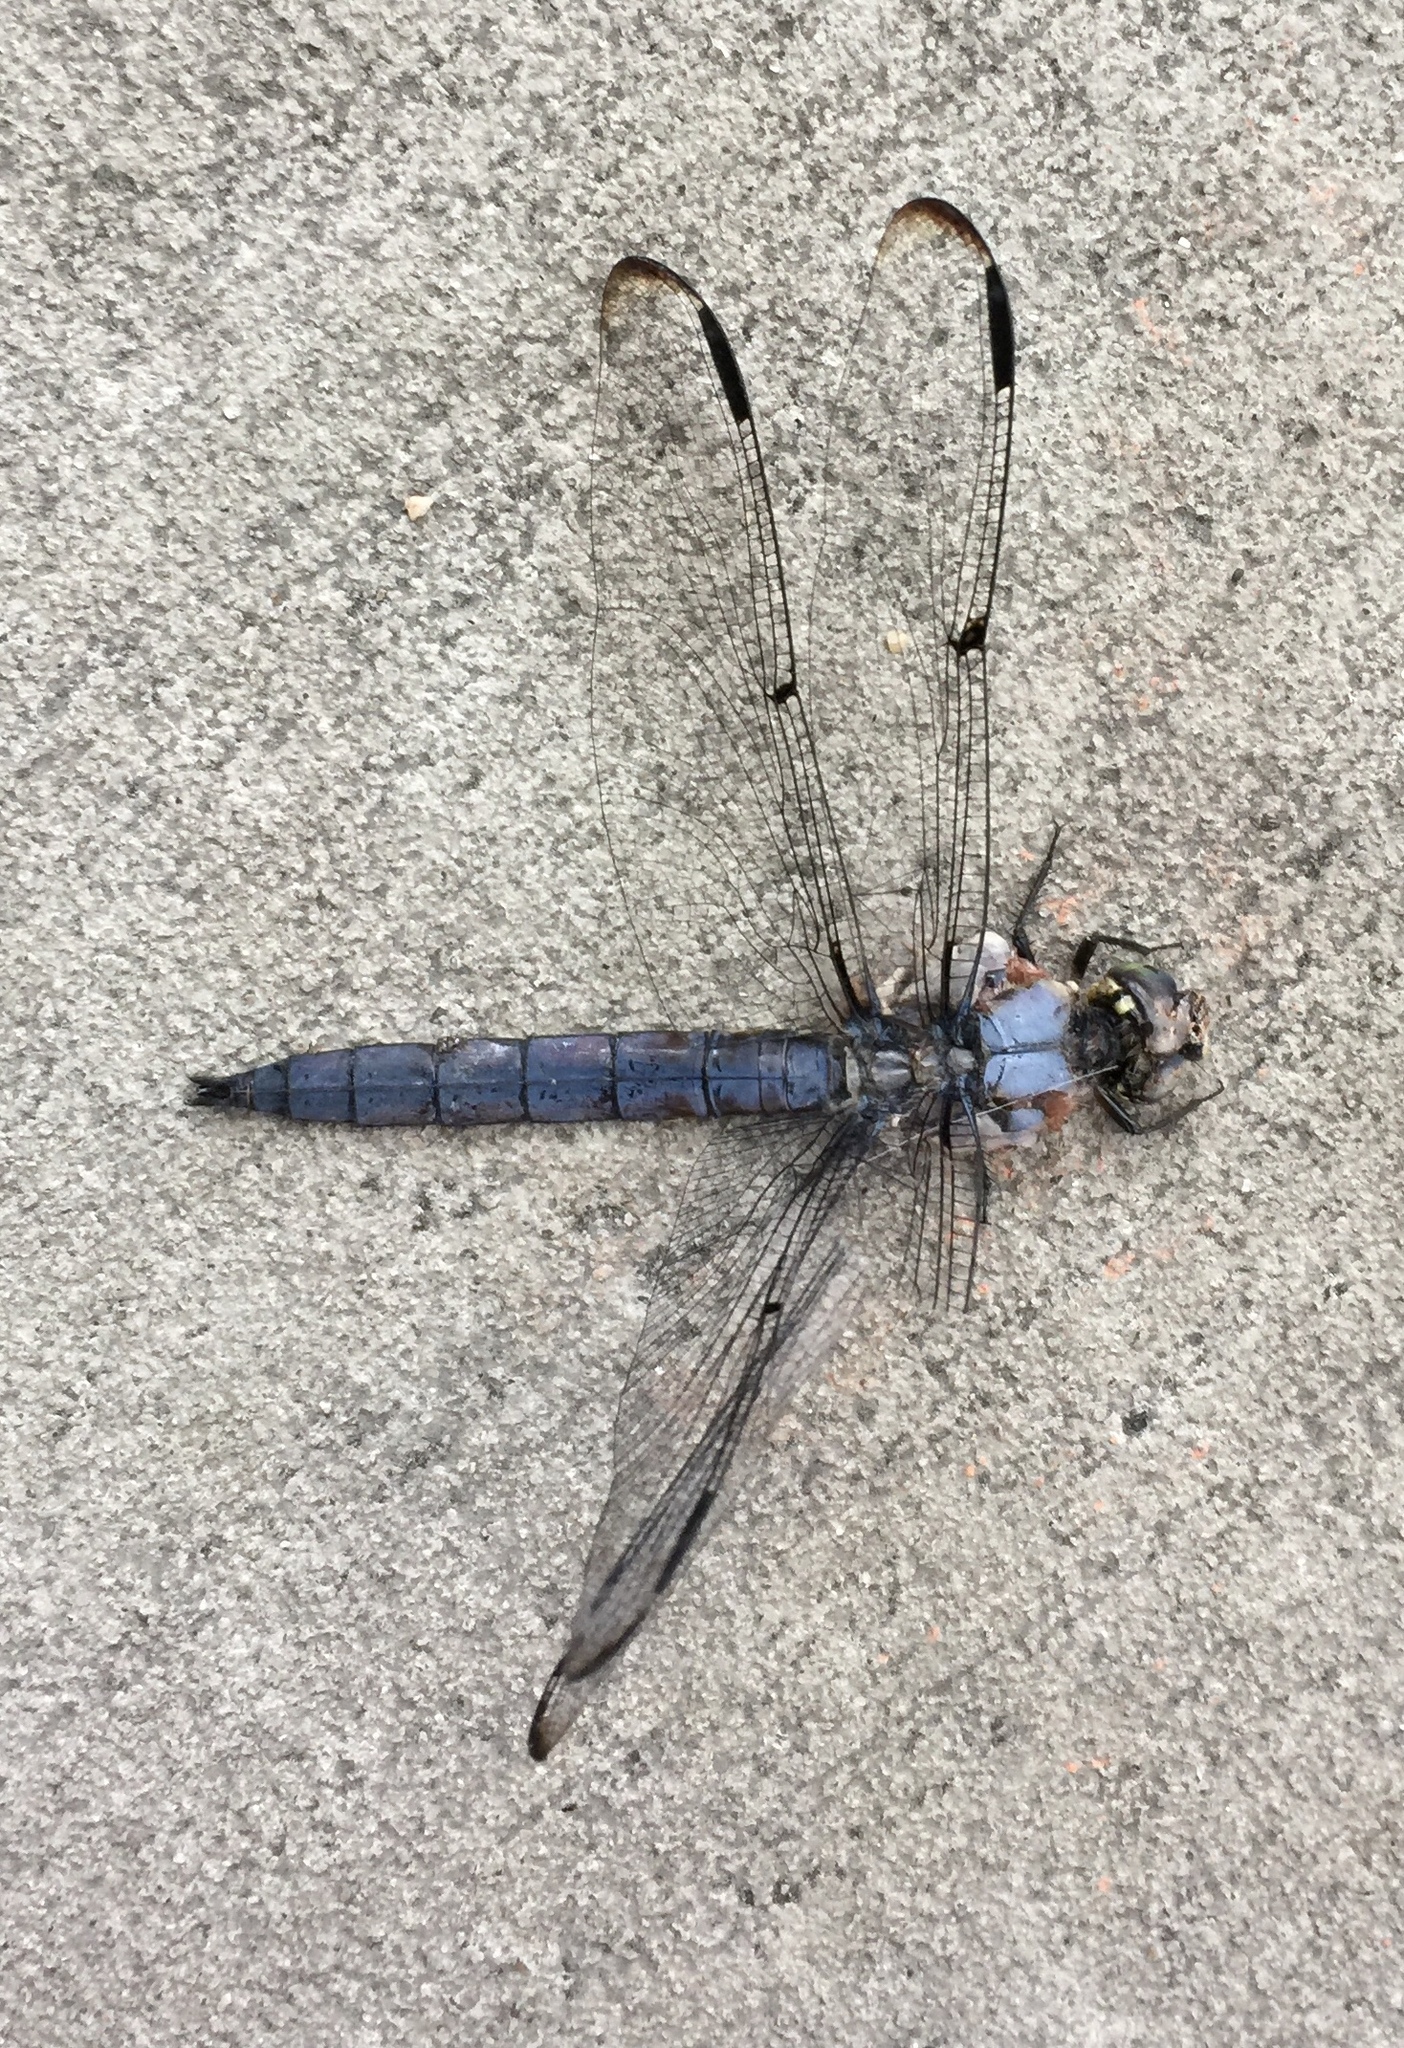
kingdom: Animalia
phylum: Arthropoda
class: Insecta
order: Odonata
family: Libellulidae
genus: Libellula
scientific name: Libellula vibrans
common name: Great blue skimmer
